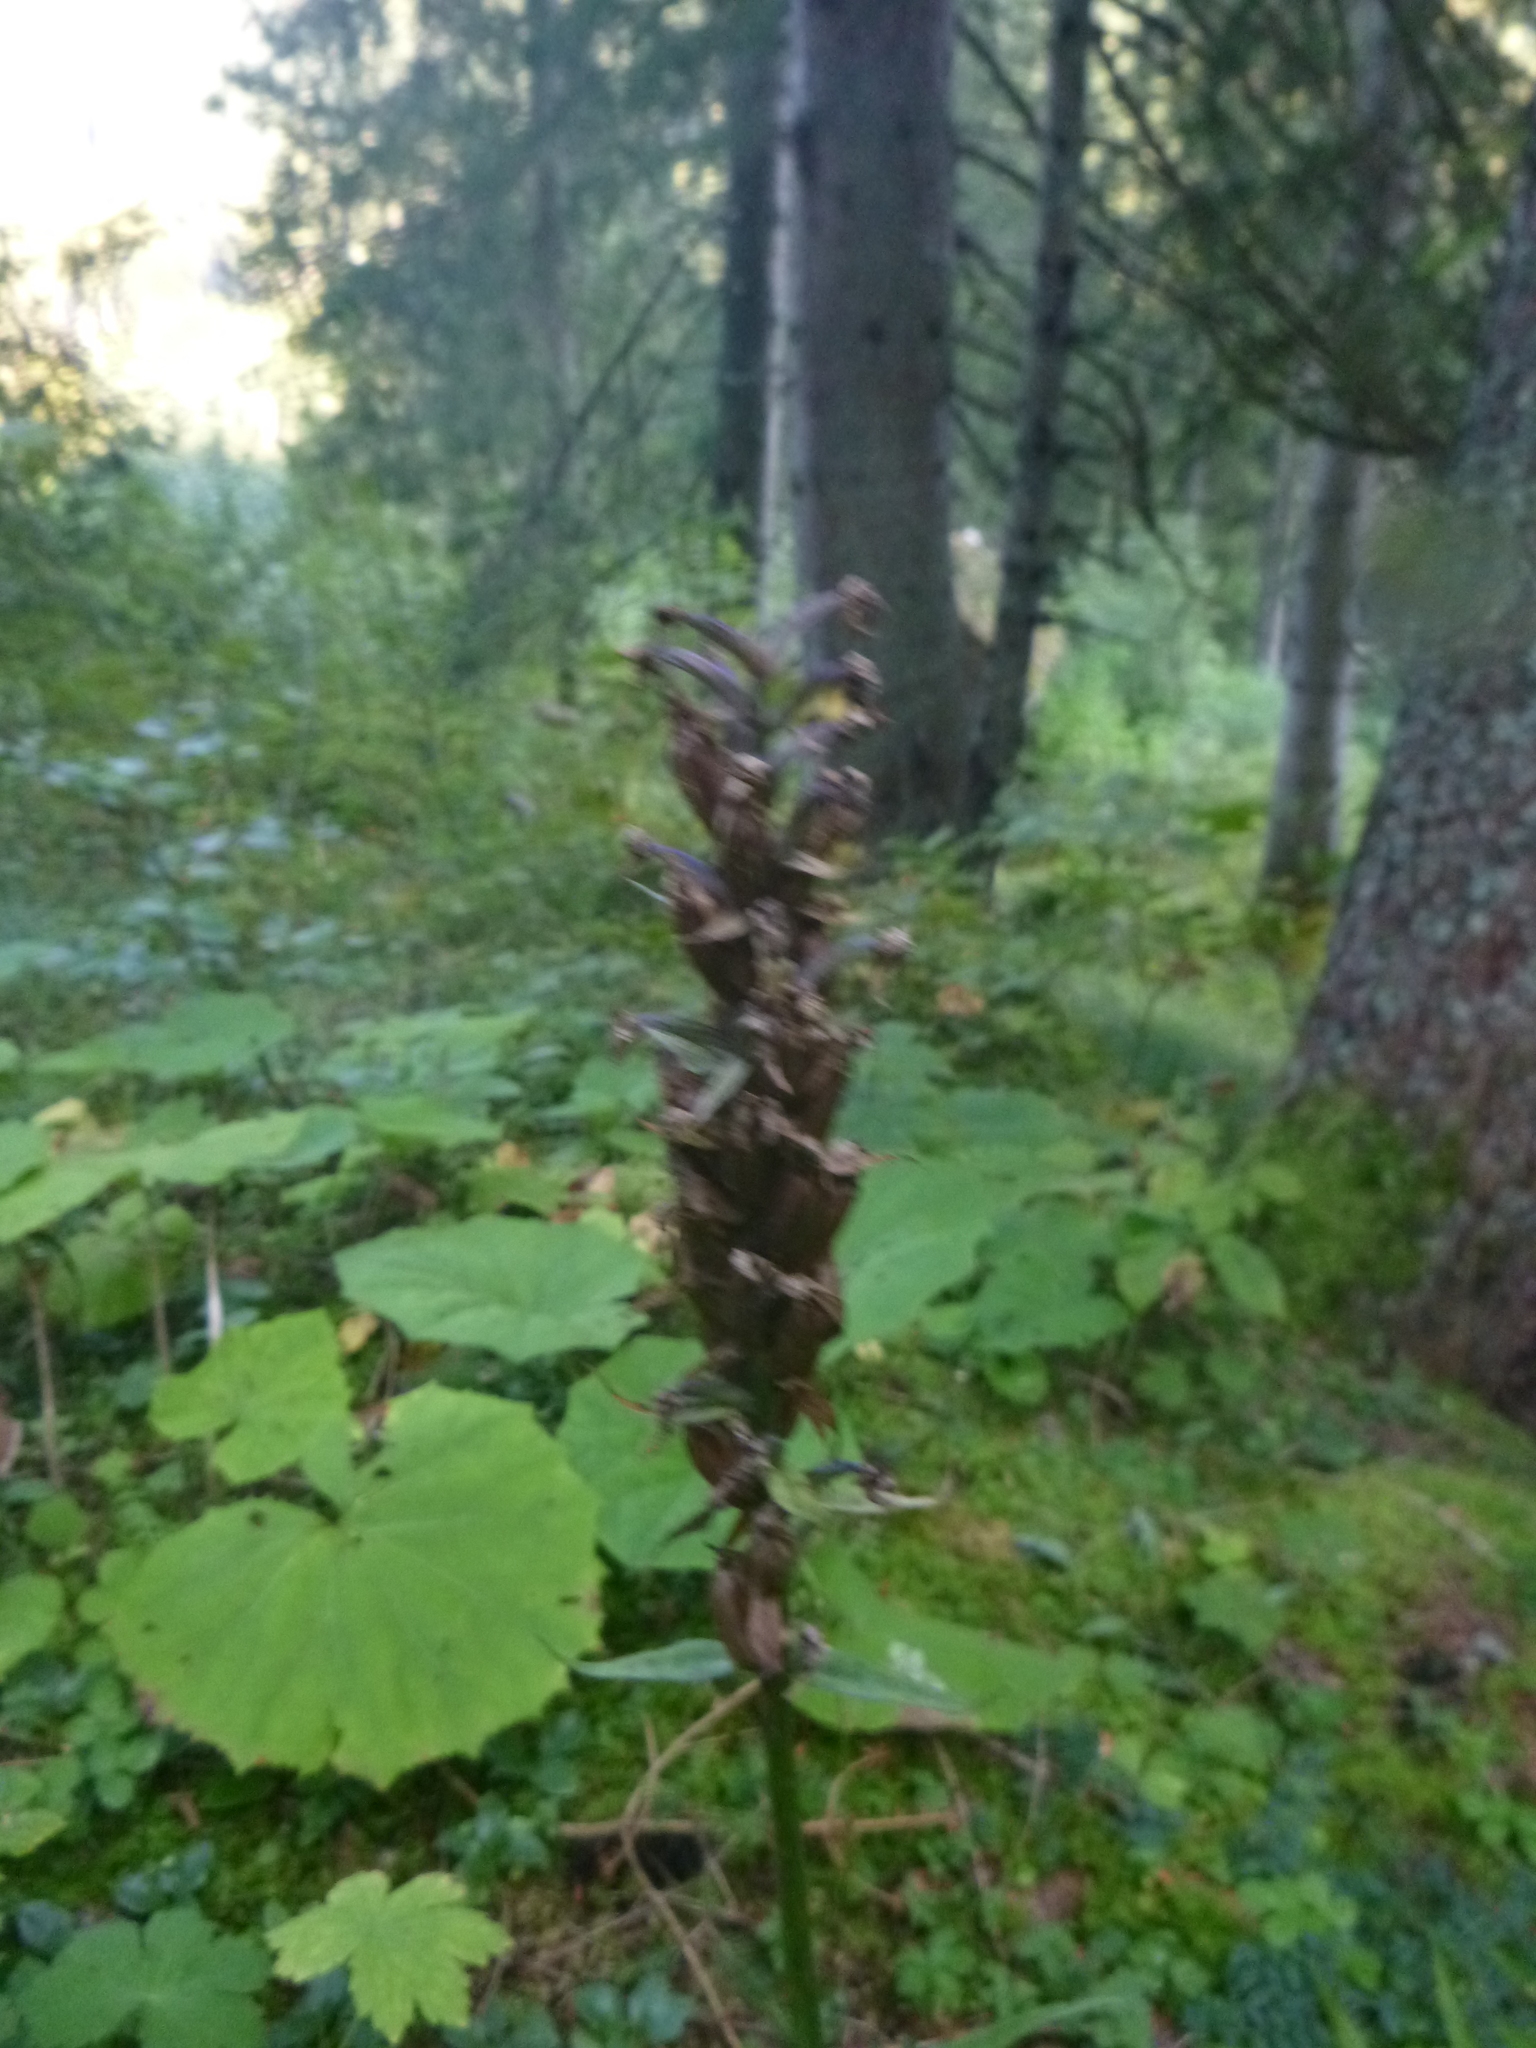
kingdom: Plantae
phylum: Tracheophyta
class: Liliopsida
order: Asparagales
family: Orchidaceae
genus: Dactylorhiza
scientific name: Dactylorhiza maculata
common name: Heath spotted-orchid
